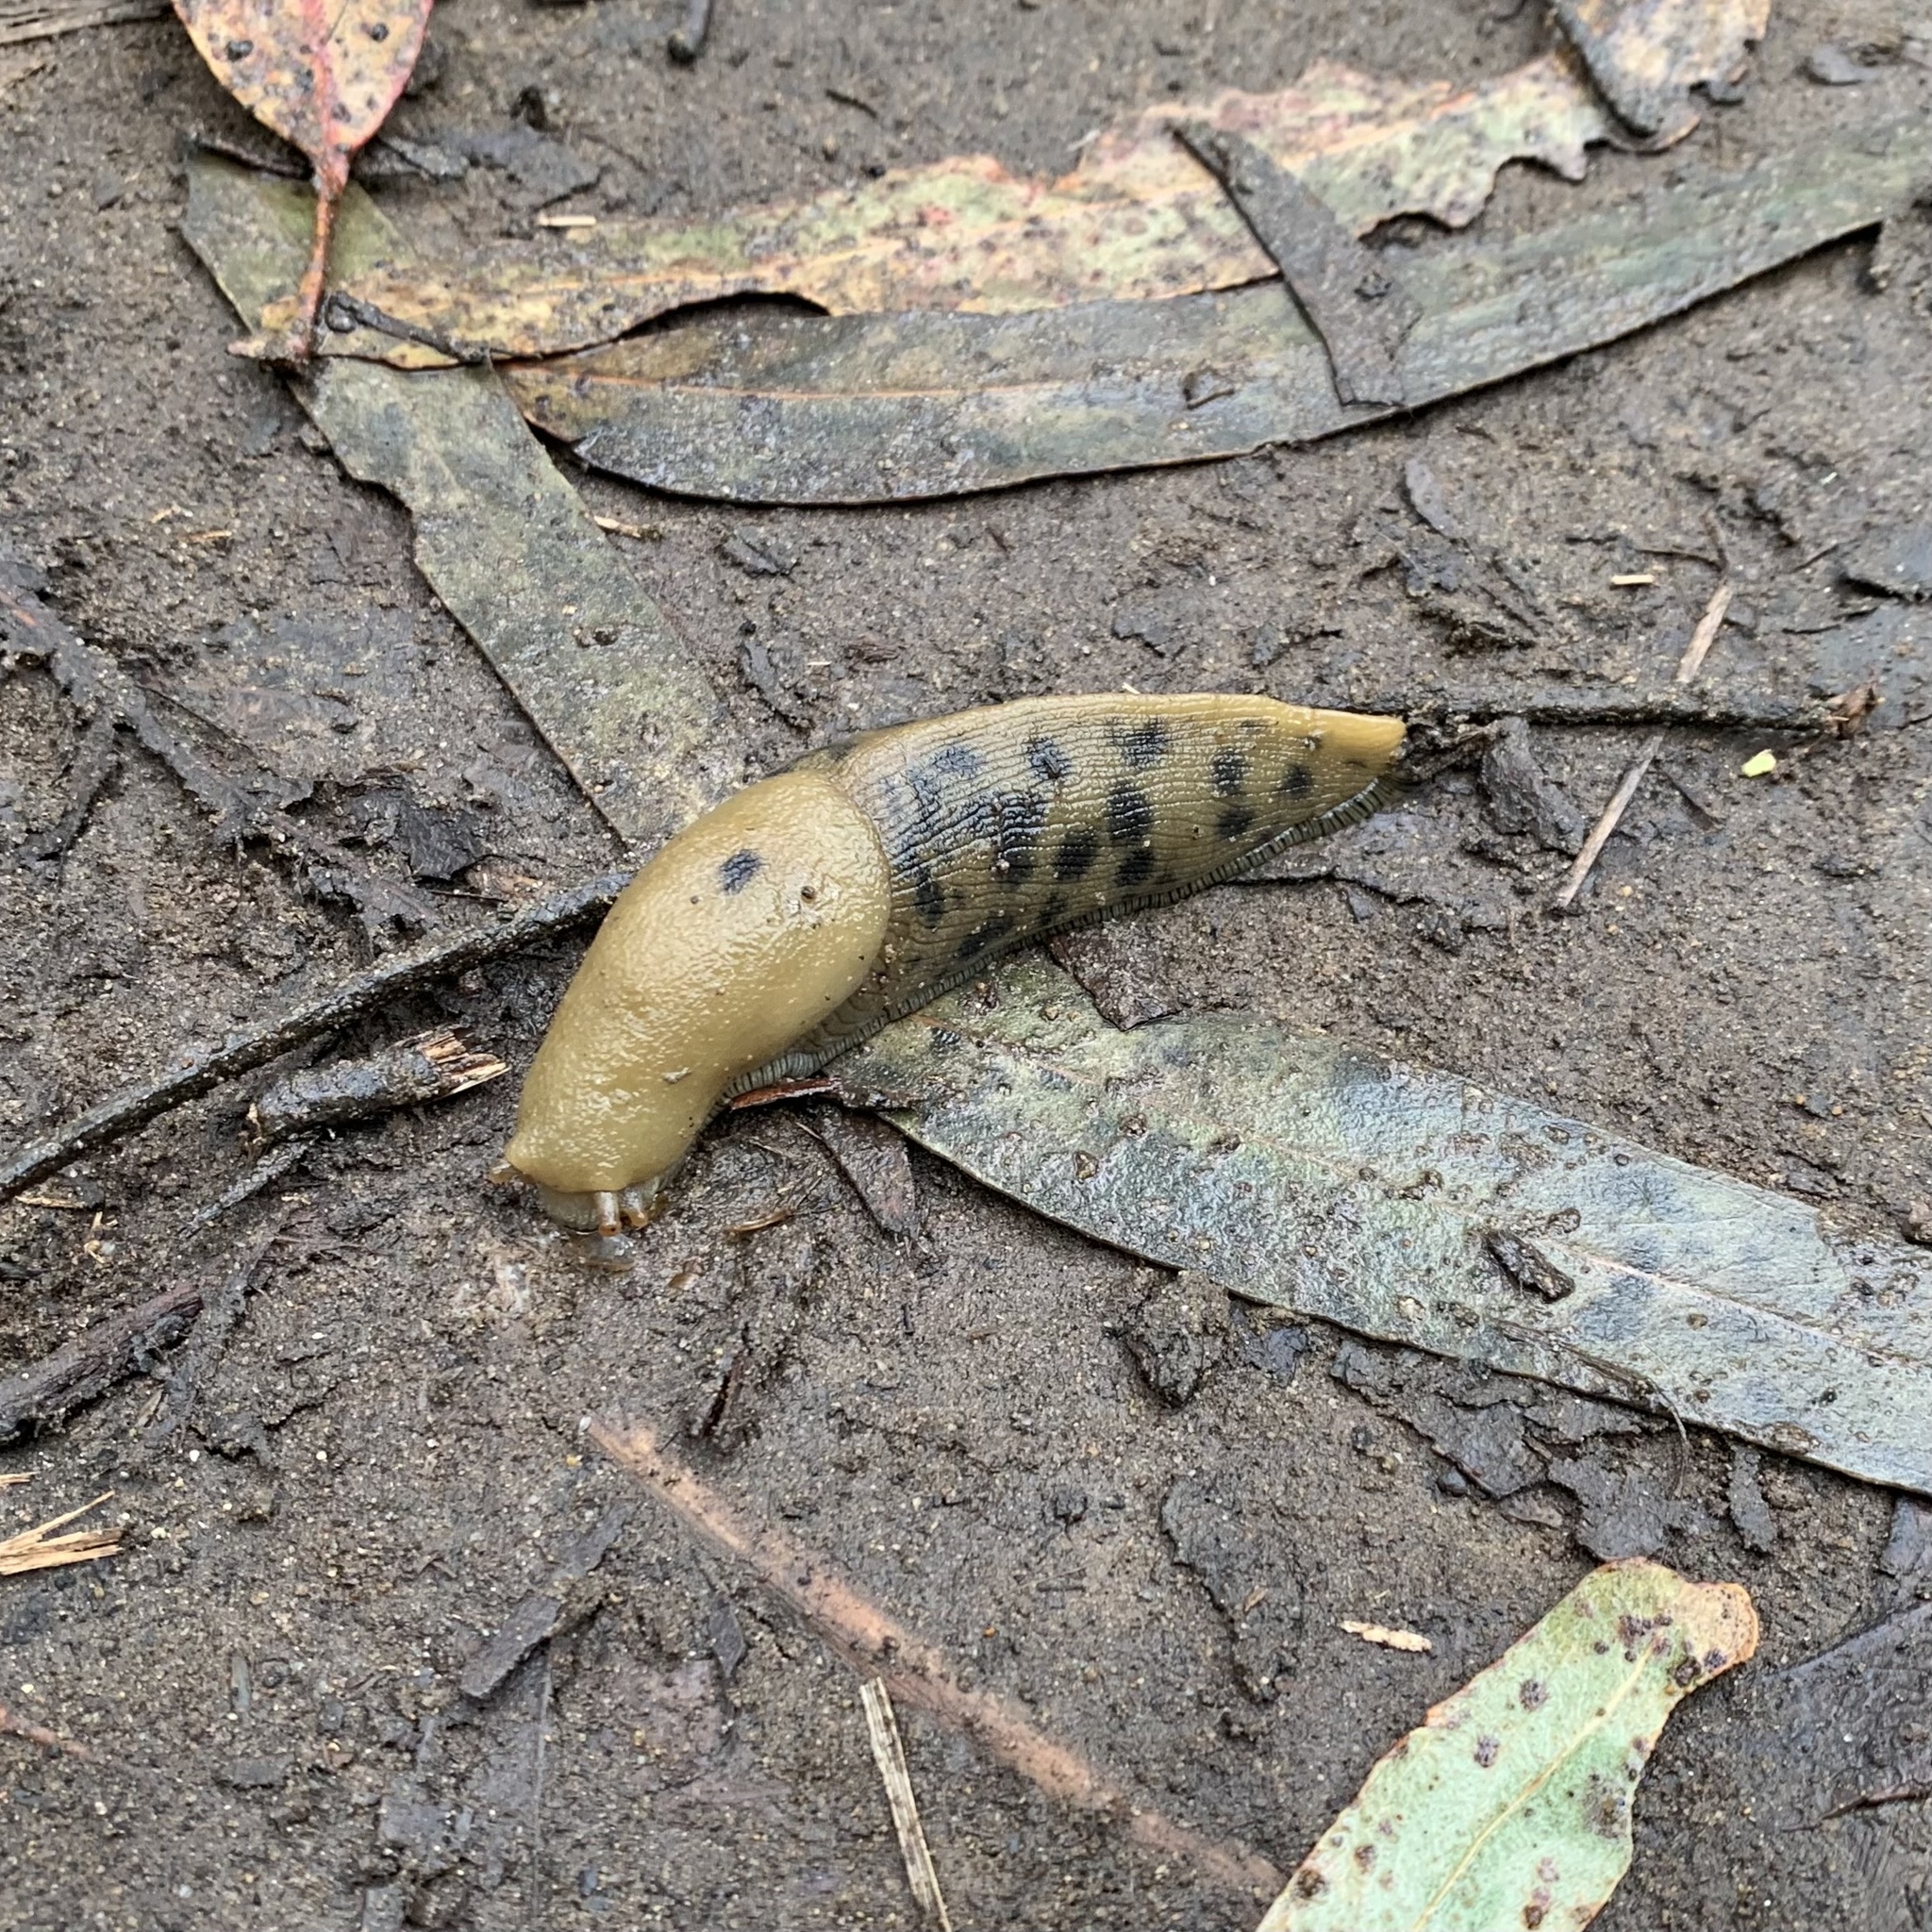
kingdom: Animalia
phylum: Mollusca
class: Gastropoda
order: Stylommatophora
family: Ariolimacidae
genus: Ariolimax
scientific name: Ariolimax buttoni
